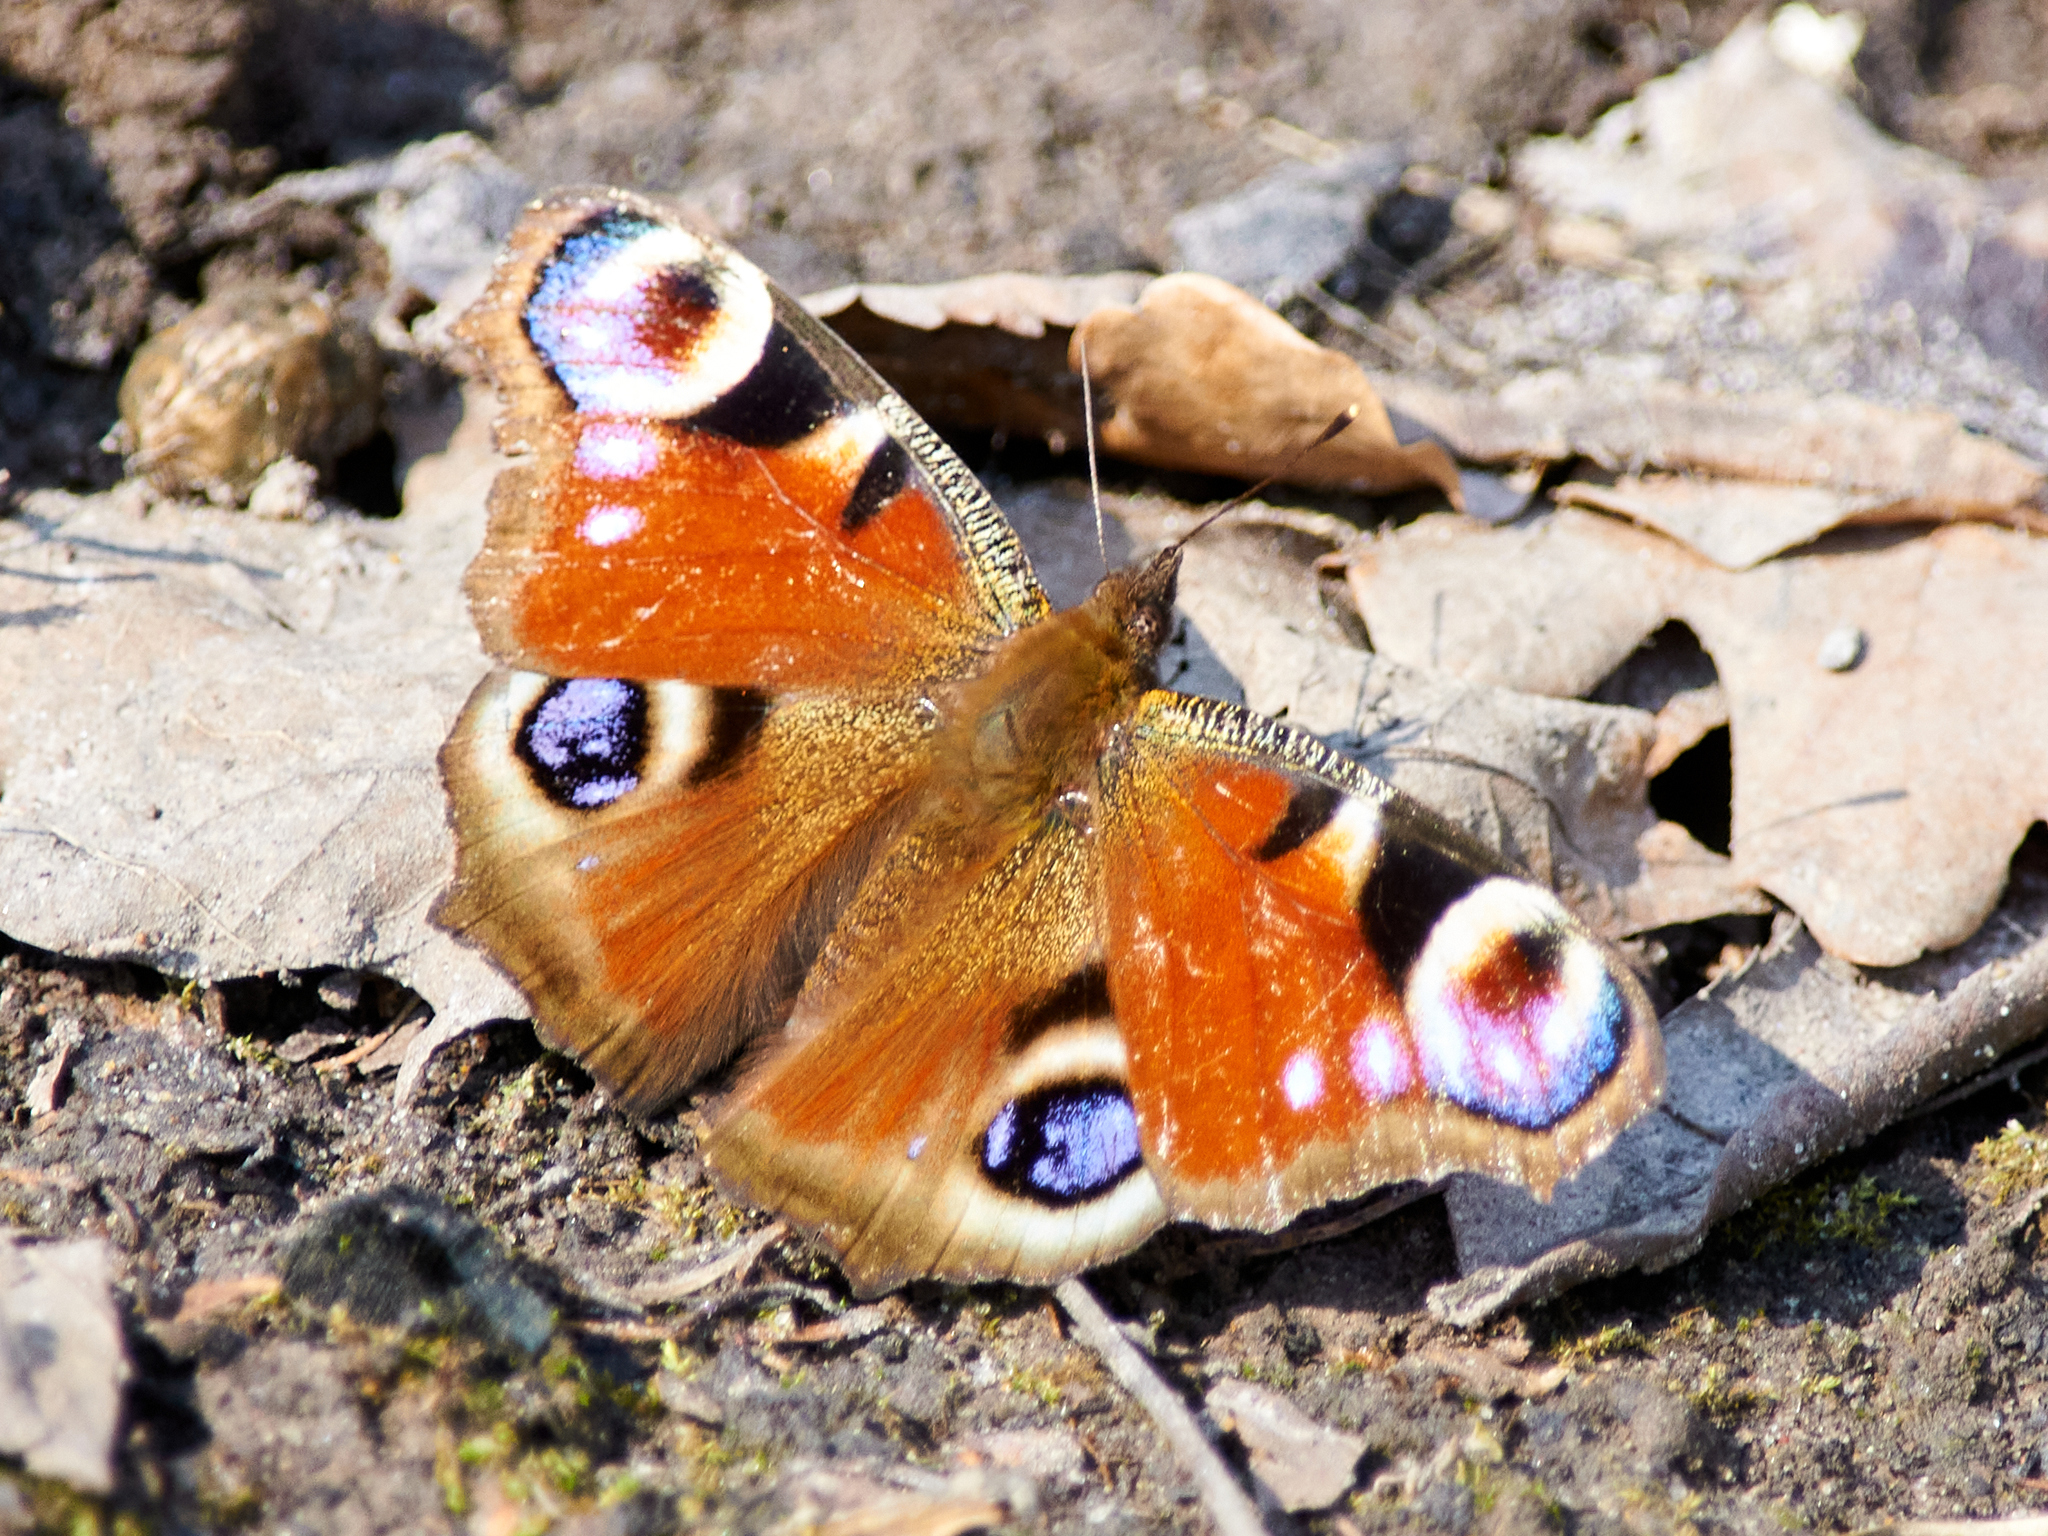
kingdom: Animalia
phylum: Arthropoda
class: Insecta
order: Lepidoptera
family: Nymphalidae
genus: Aglais
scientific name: Aglais io
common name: Peacock
